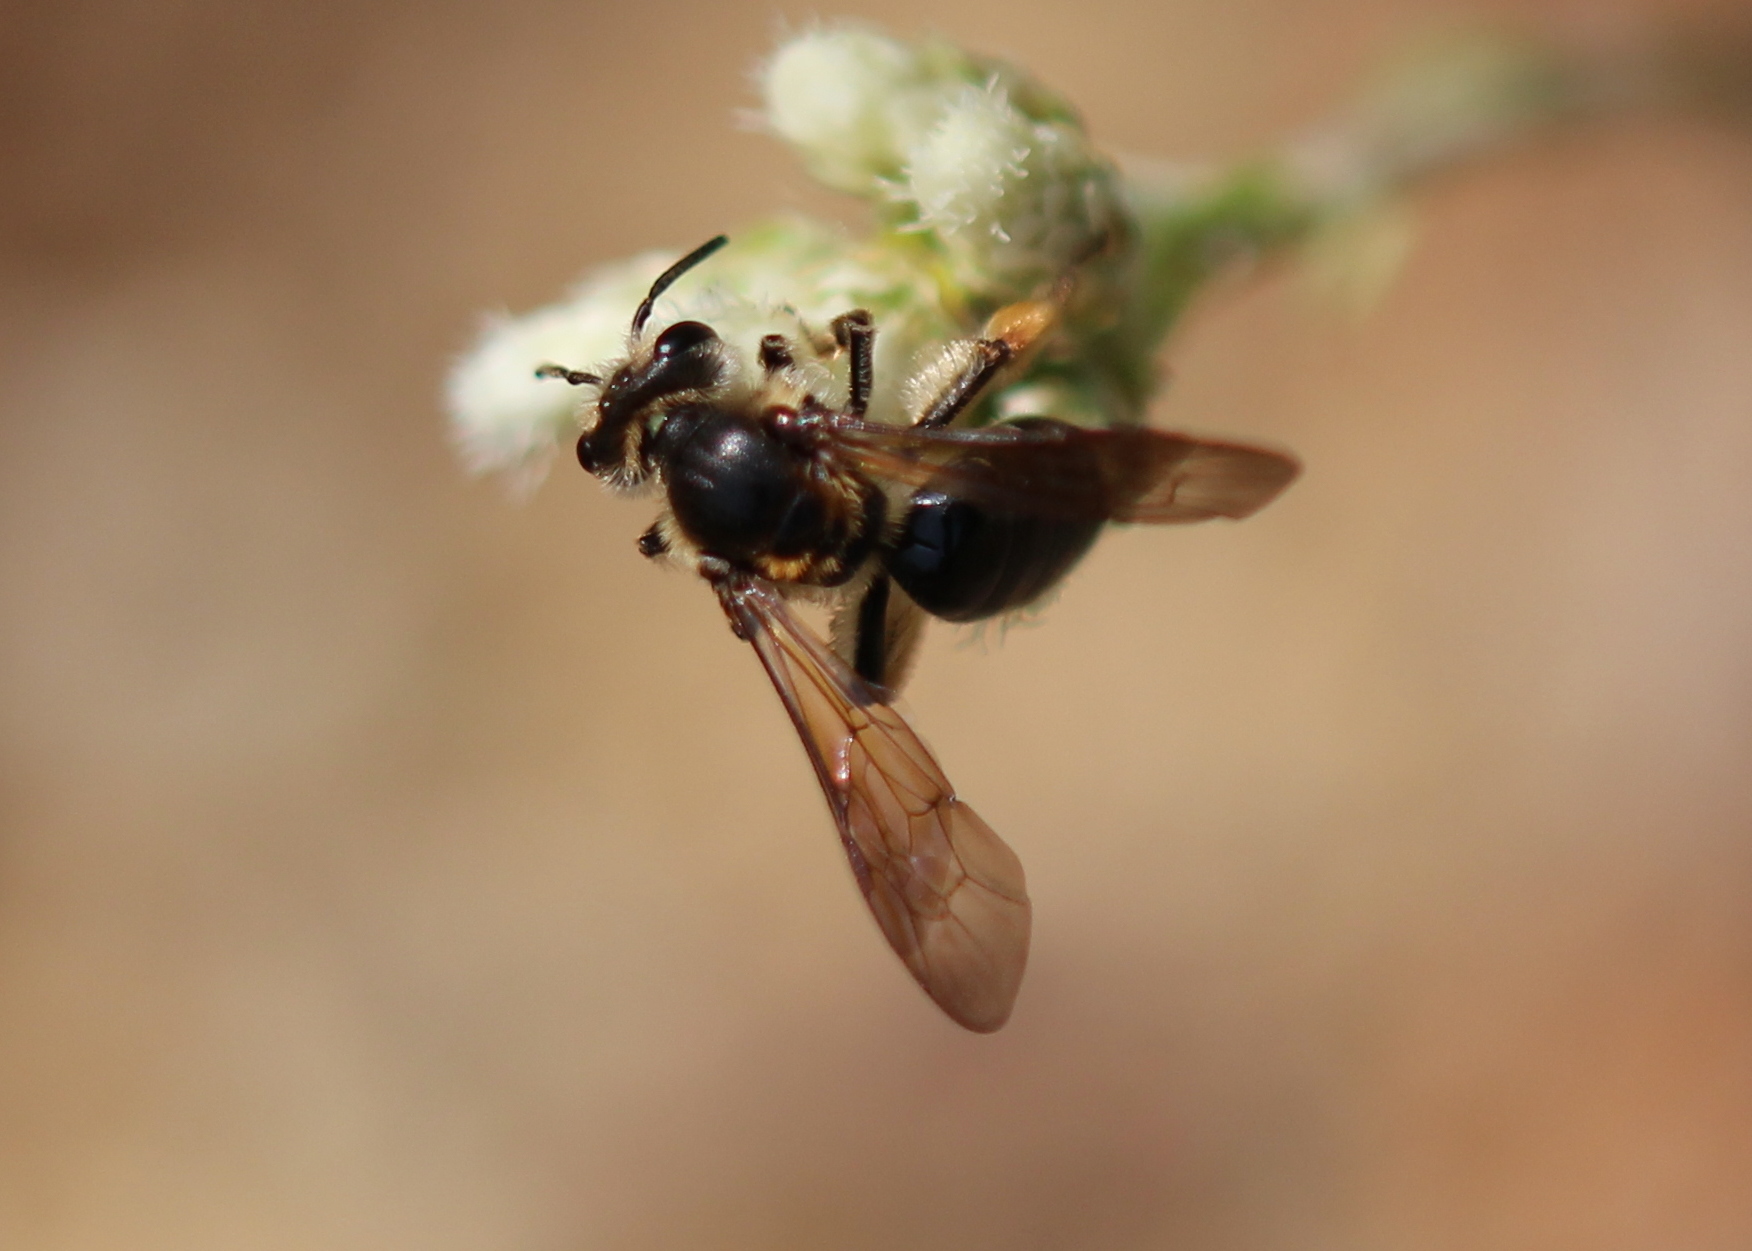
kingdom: Animalia
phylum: Arthropoda
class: Insecta
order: Hymenoptera
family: Andrenidae
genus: Andrena
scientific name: Andrena crataegi
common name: Hawthorn mining bee
